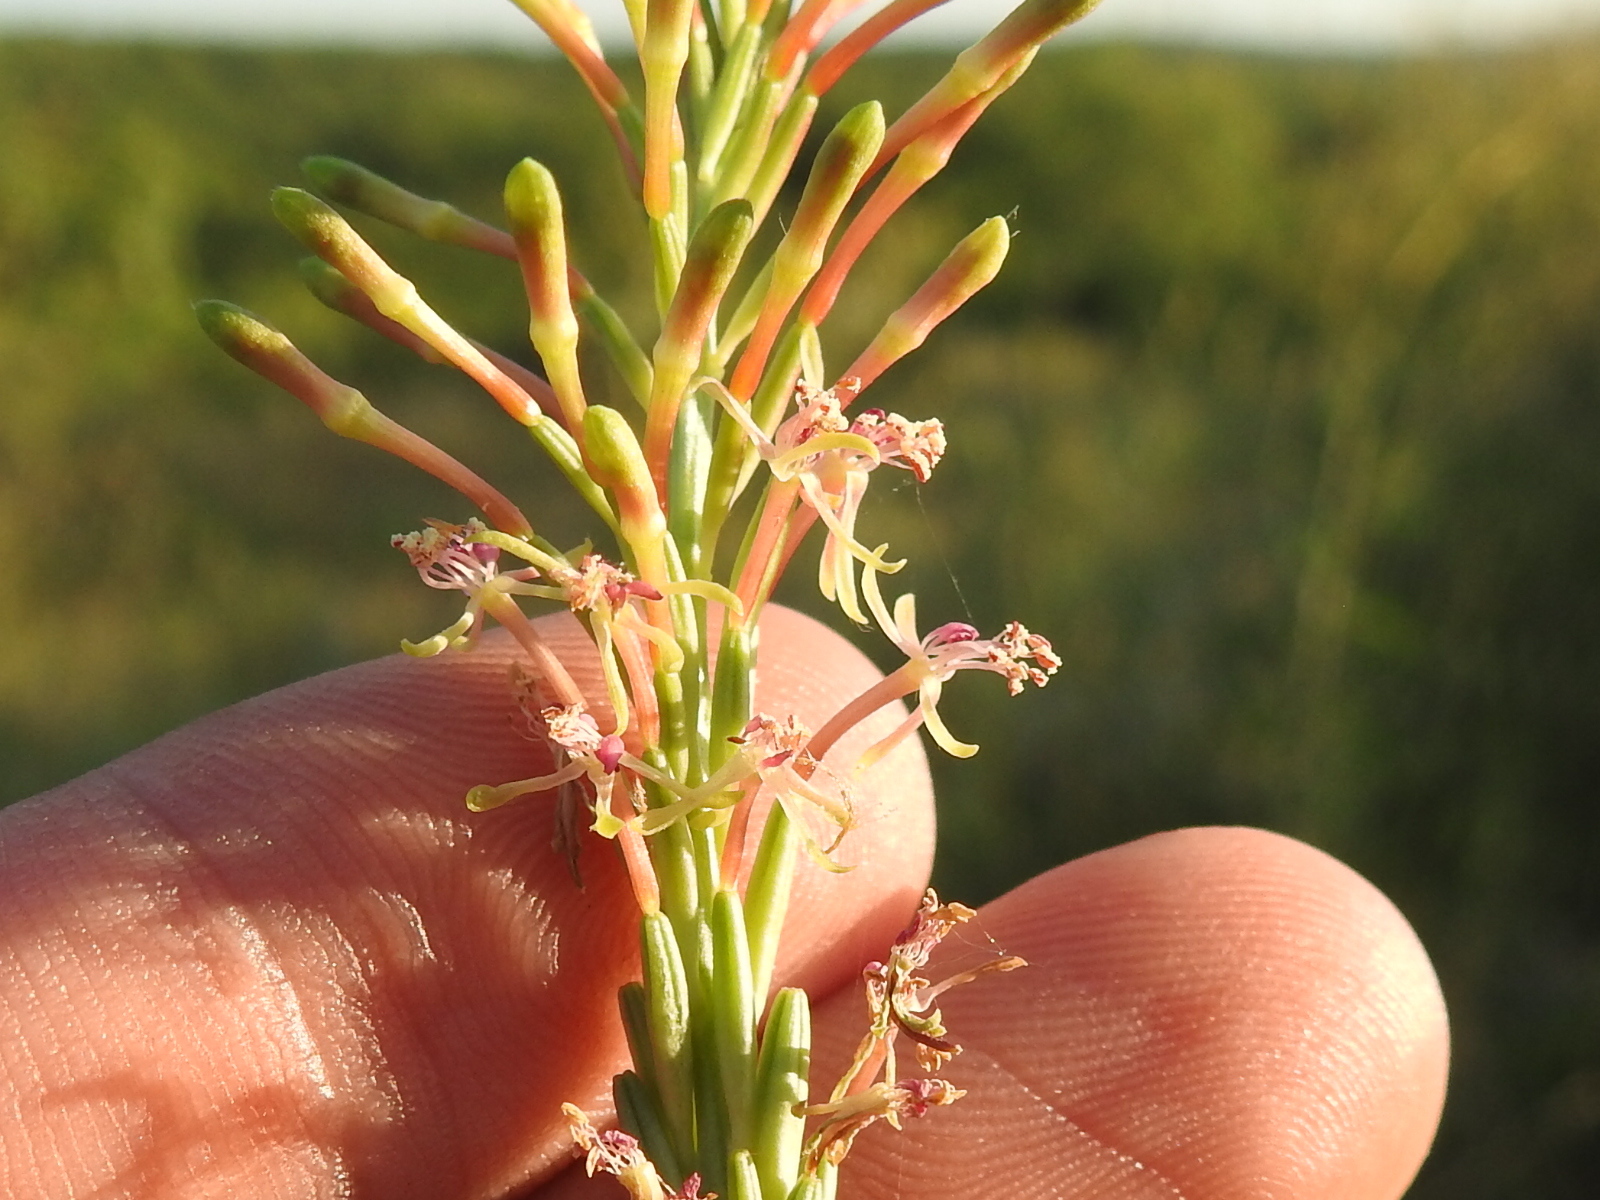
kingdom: Plantae
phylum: Tracheophyta
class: Magnoliopsida
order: Myrtales
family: Onagraceae
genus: Oenothera
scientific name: Oenothera curtiflora
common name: Velvetweed
